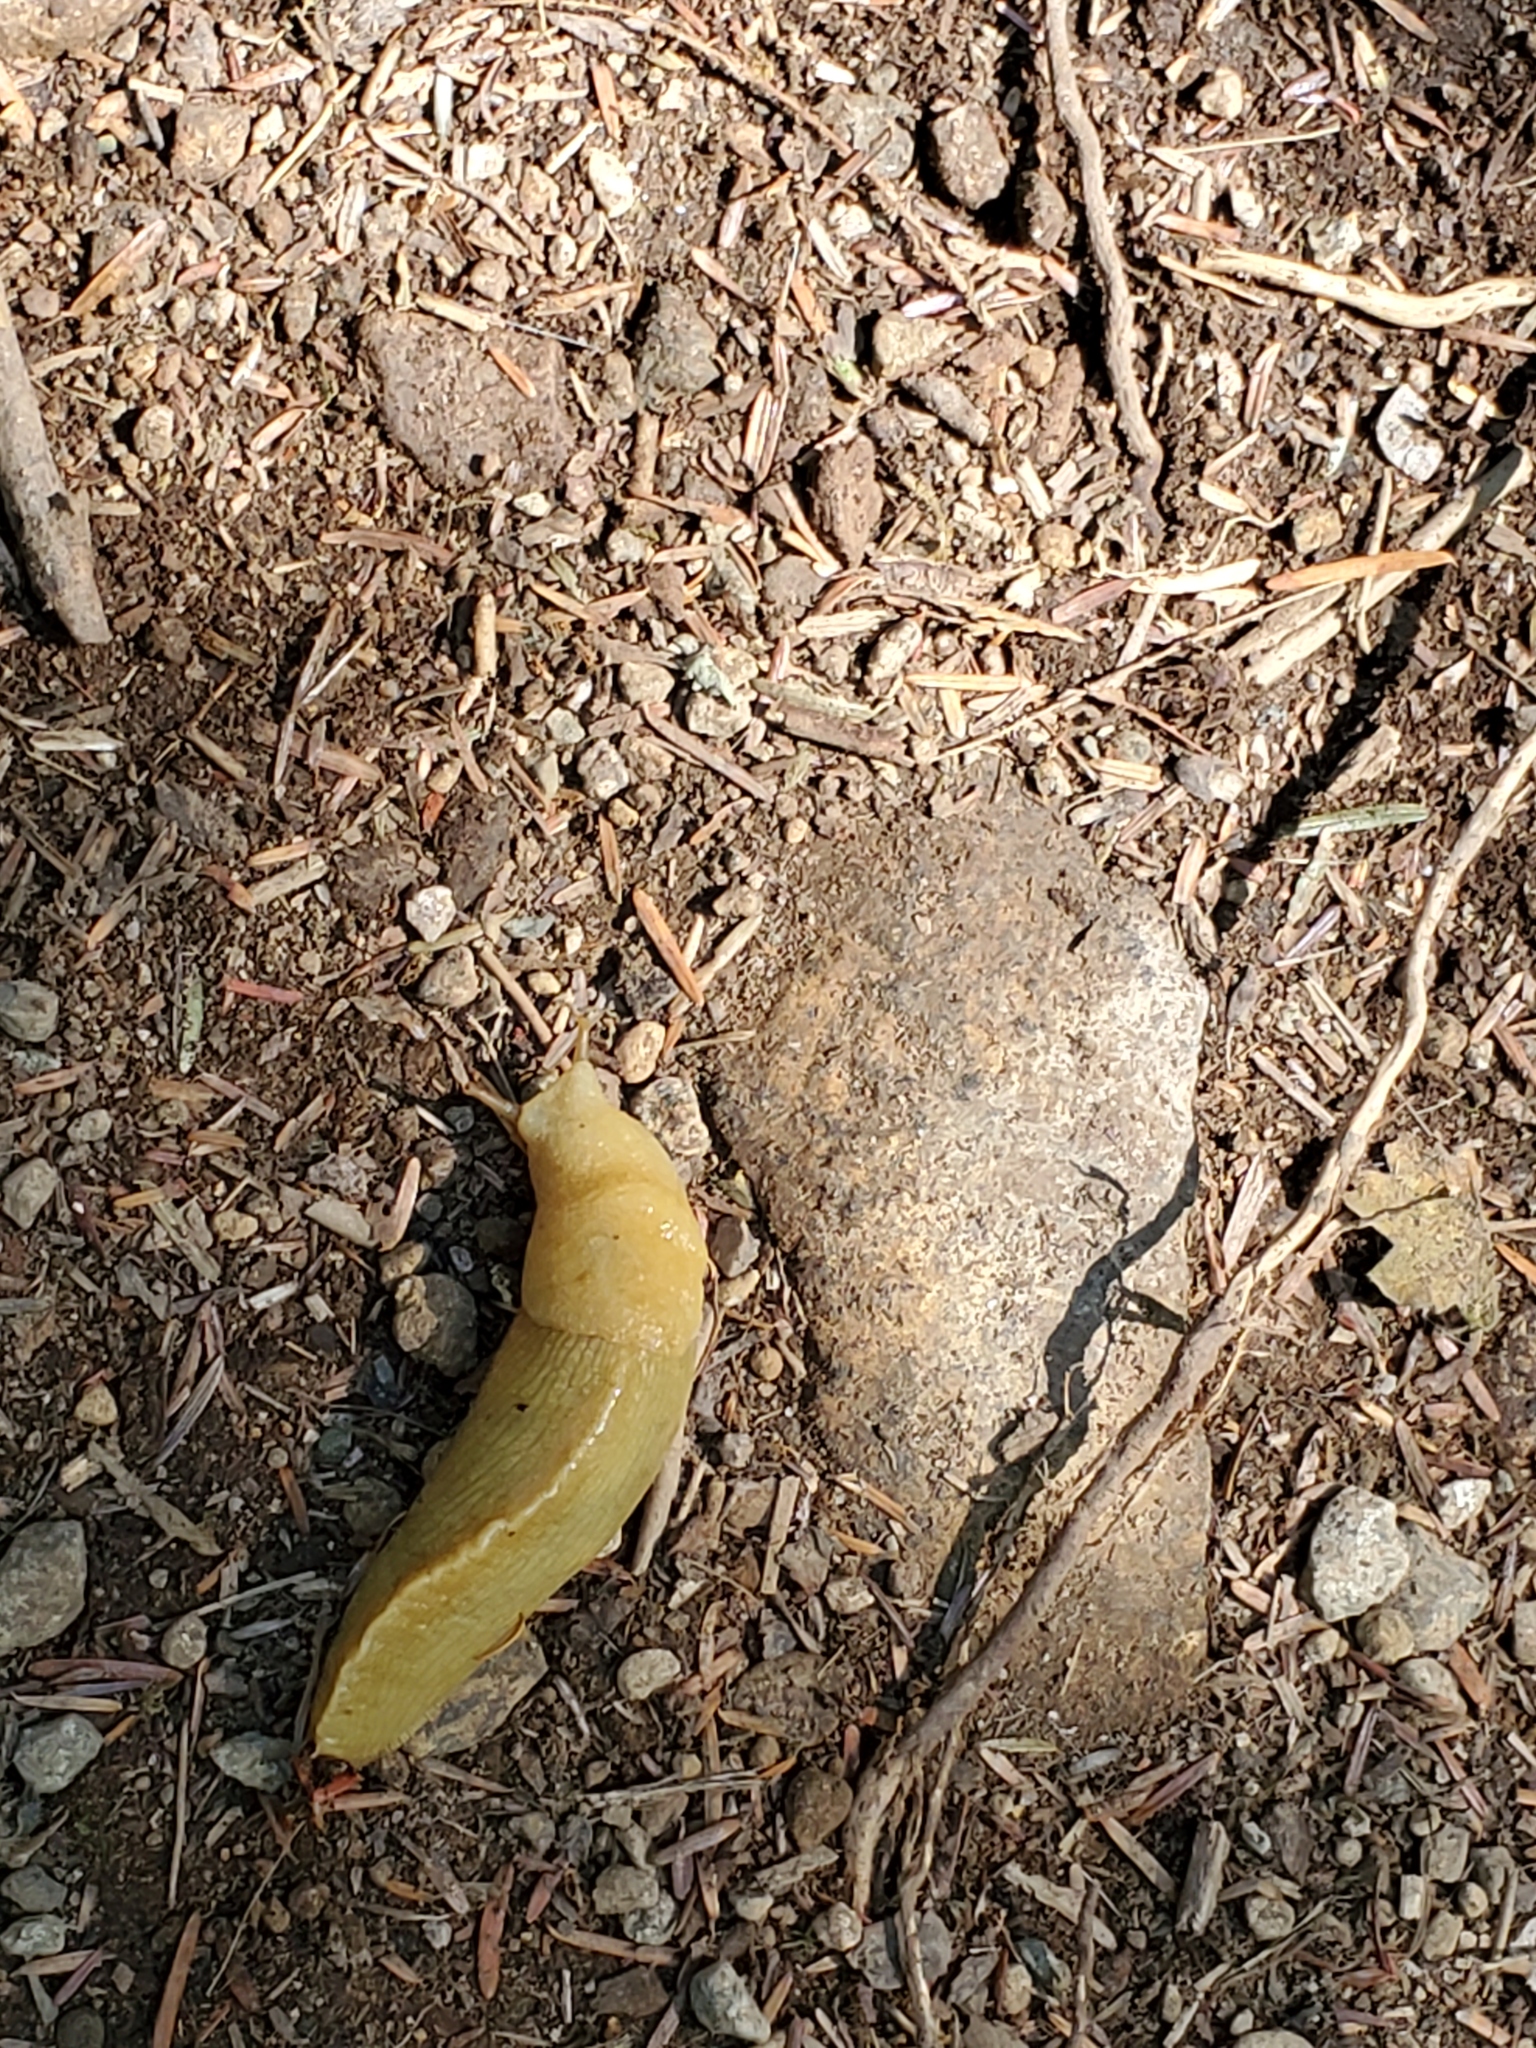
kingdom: Animalia
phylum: Mollusca
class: Gastropoda
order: Stylommatophora
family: Ariolimacidae
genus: Ariolimax
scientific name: Ariolimax columbianus
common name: Pacific banana slug
